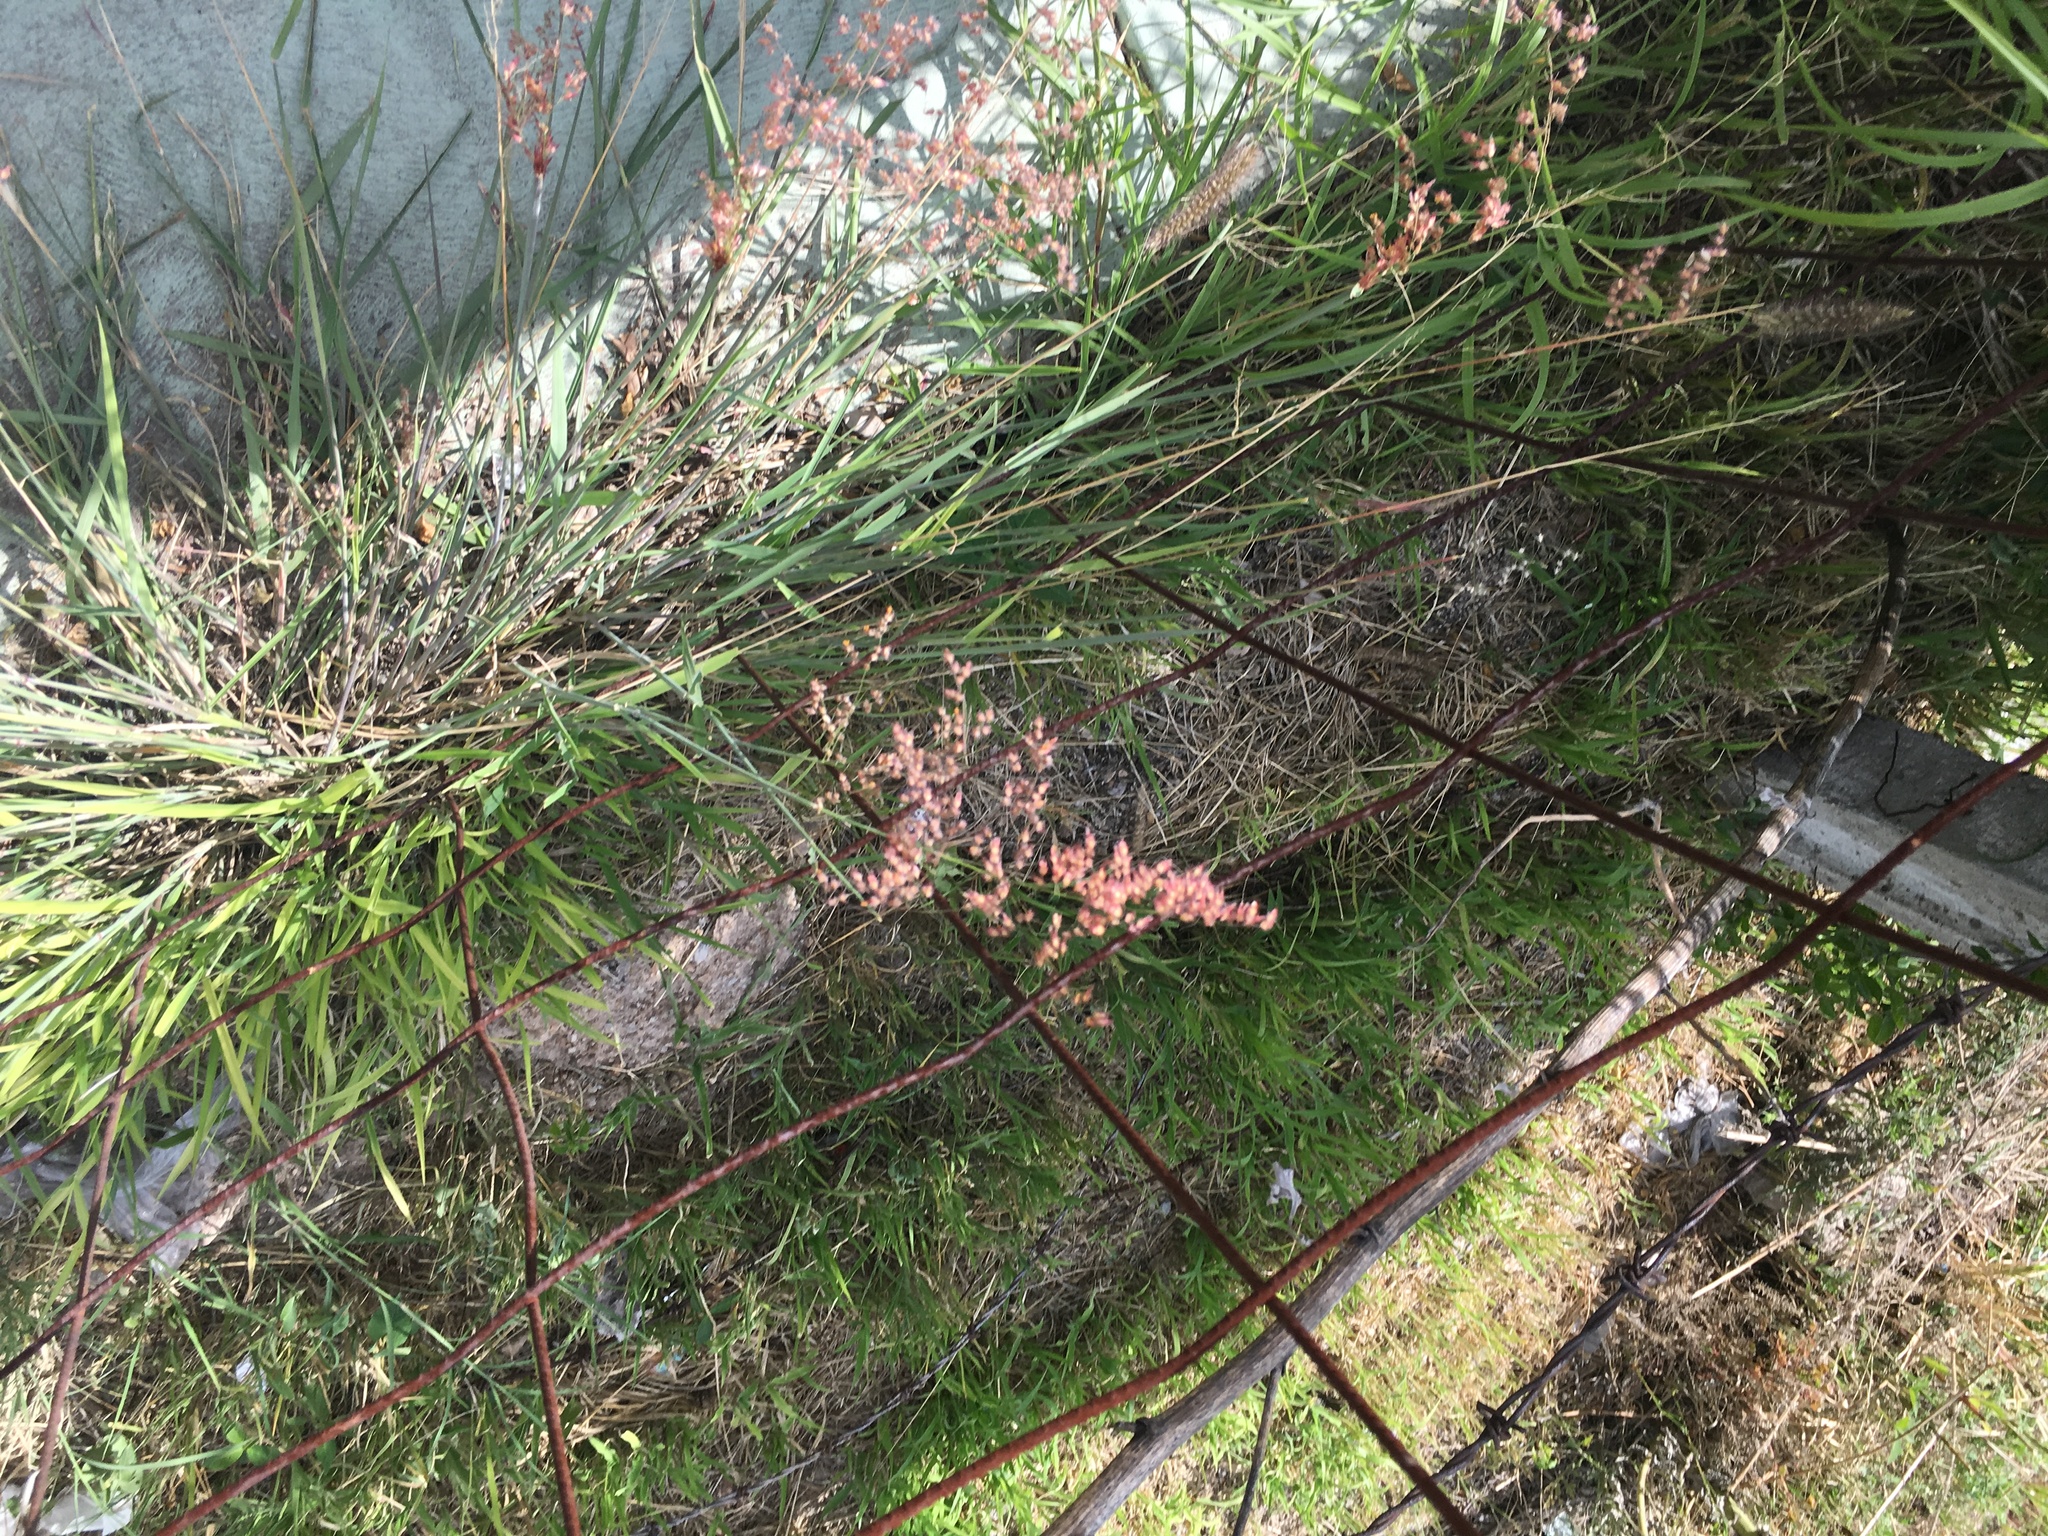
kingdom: Plantae
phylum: Tracheophyta
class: Liliopsida
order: Poales
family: Poaceae
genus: Melinis
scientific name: Melinis repens
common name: Rose natal grass
